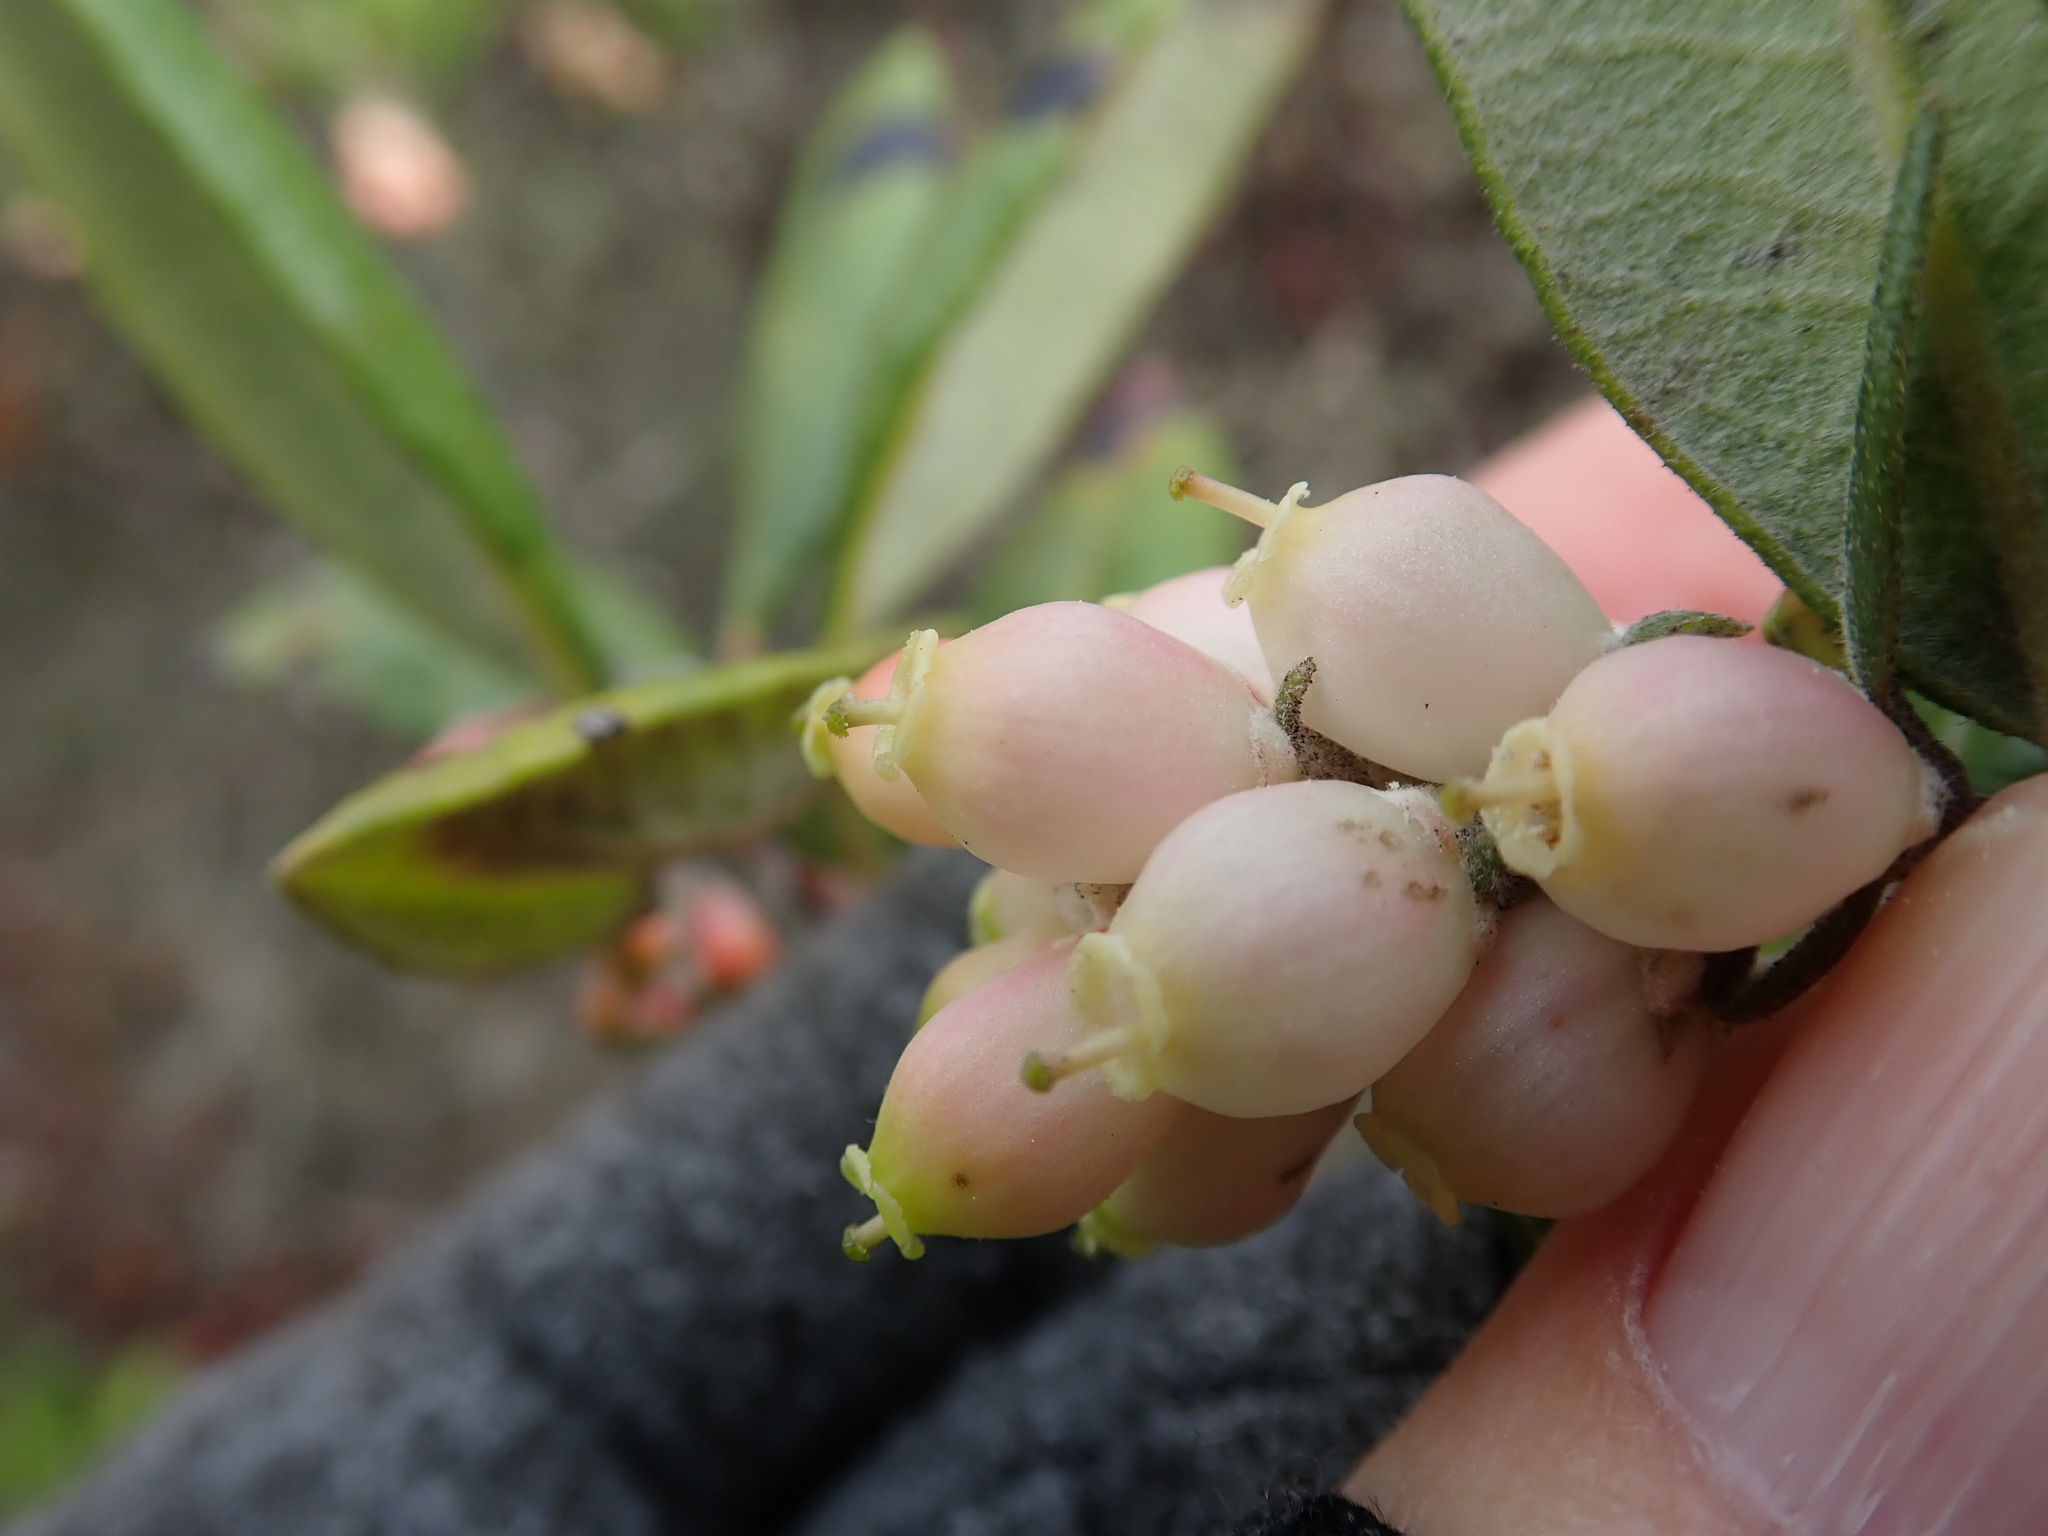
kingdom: Plantae
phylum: Tracheophyta
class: Magnoliopsida
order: Ericales
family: Ericaceae
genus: Arctostaphylos
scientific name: Arctostaphylos bicolor
